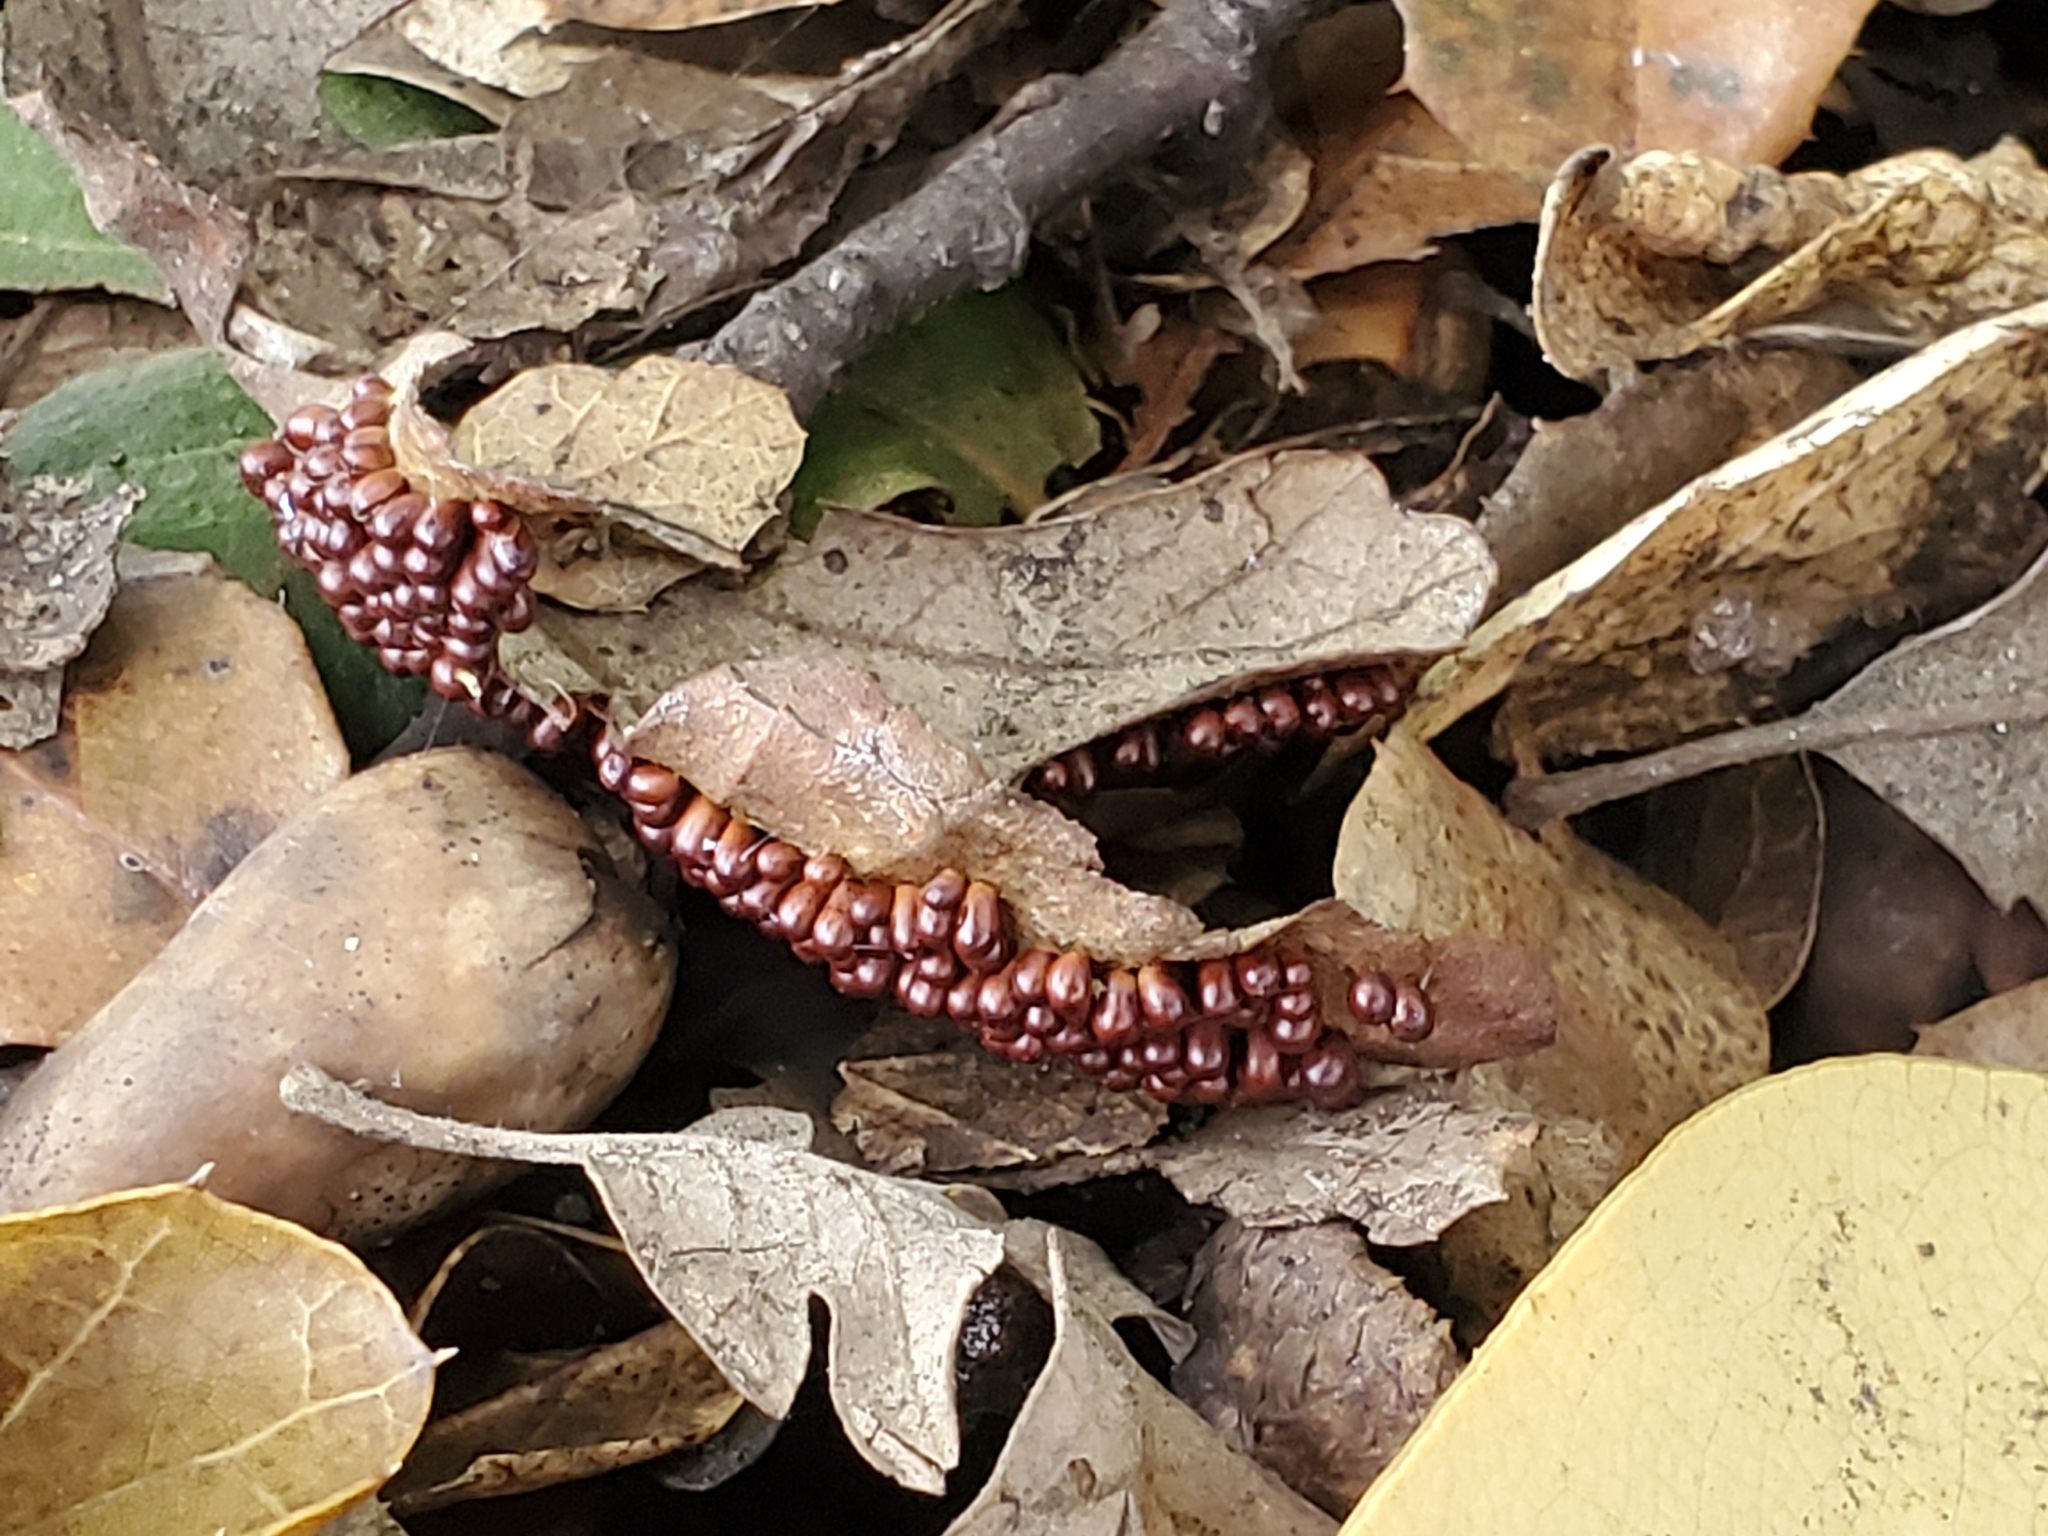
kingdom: Protozoa
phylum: Mycetozoa
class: Myxomycetes
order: Physarales
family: Physaraceae
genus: Leocarpus
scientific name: Leocarpus fragilis
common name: Insect-egg slime
